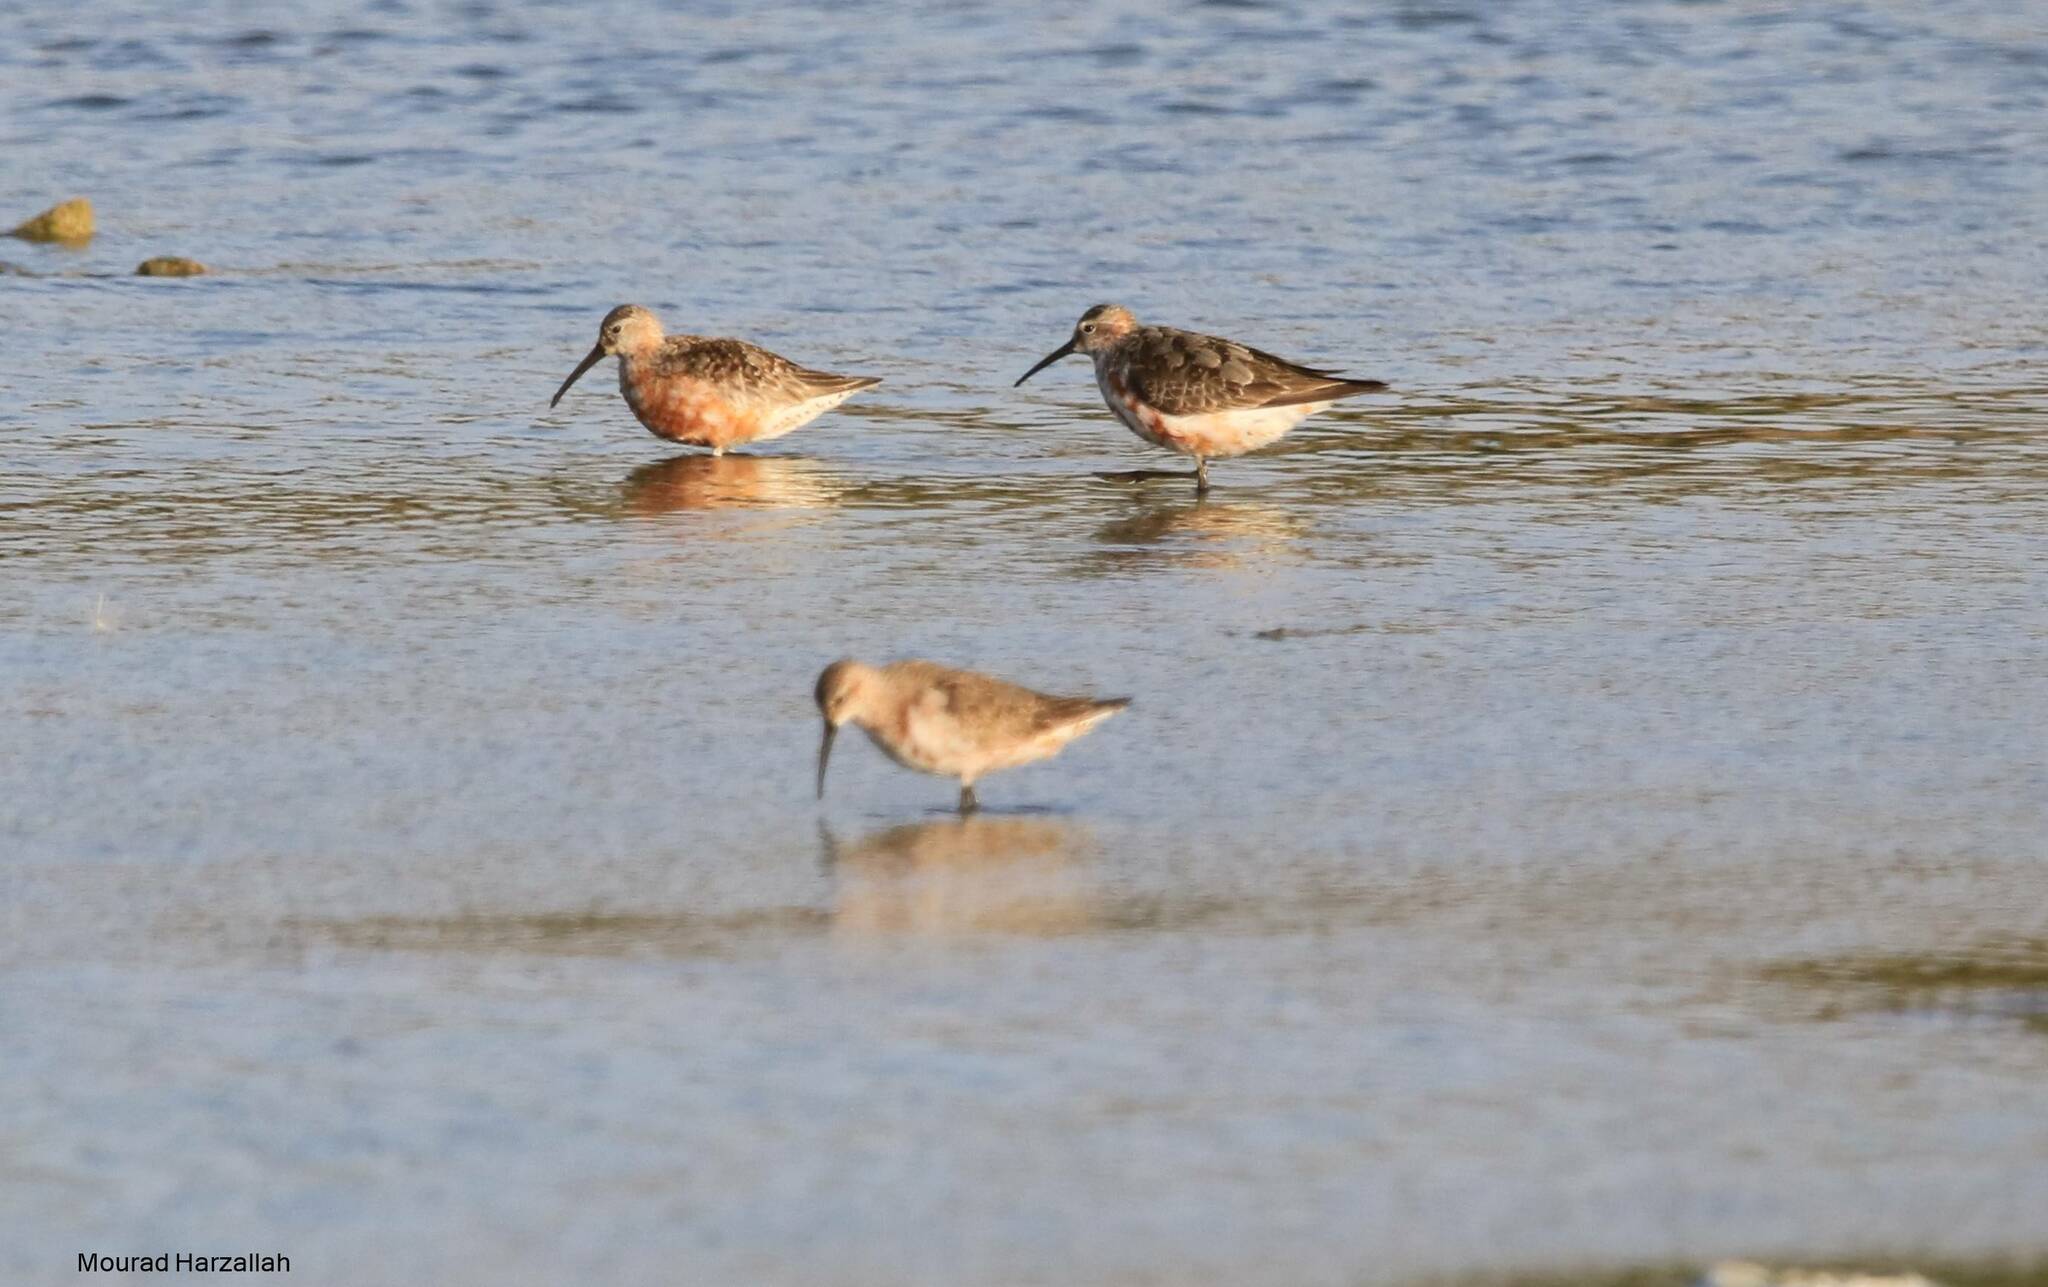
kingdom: Animalia
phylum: Chordata
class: Aves
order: Charadriiformes
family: Scolopacidae
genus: Calidris
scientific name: Calidris ferruginea
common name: Curlew sandpiper
